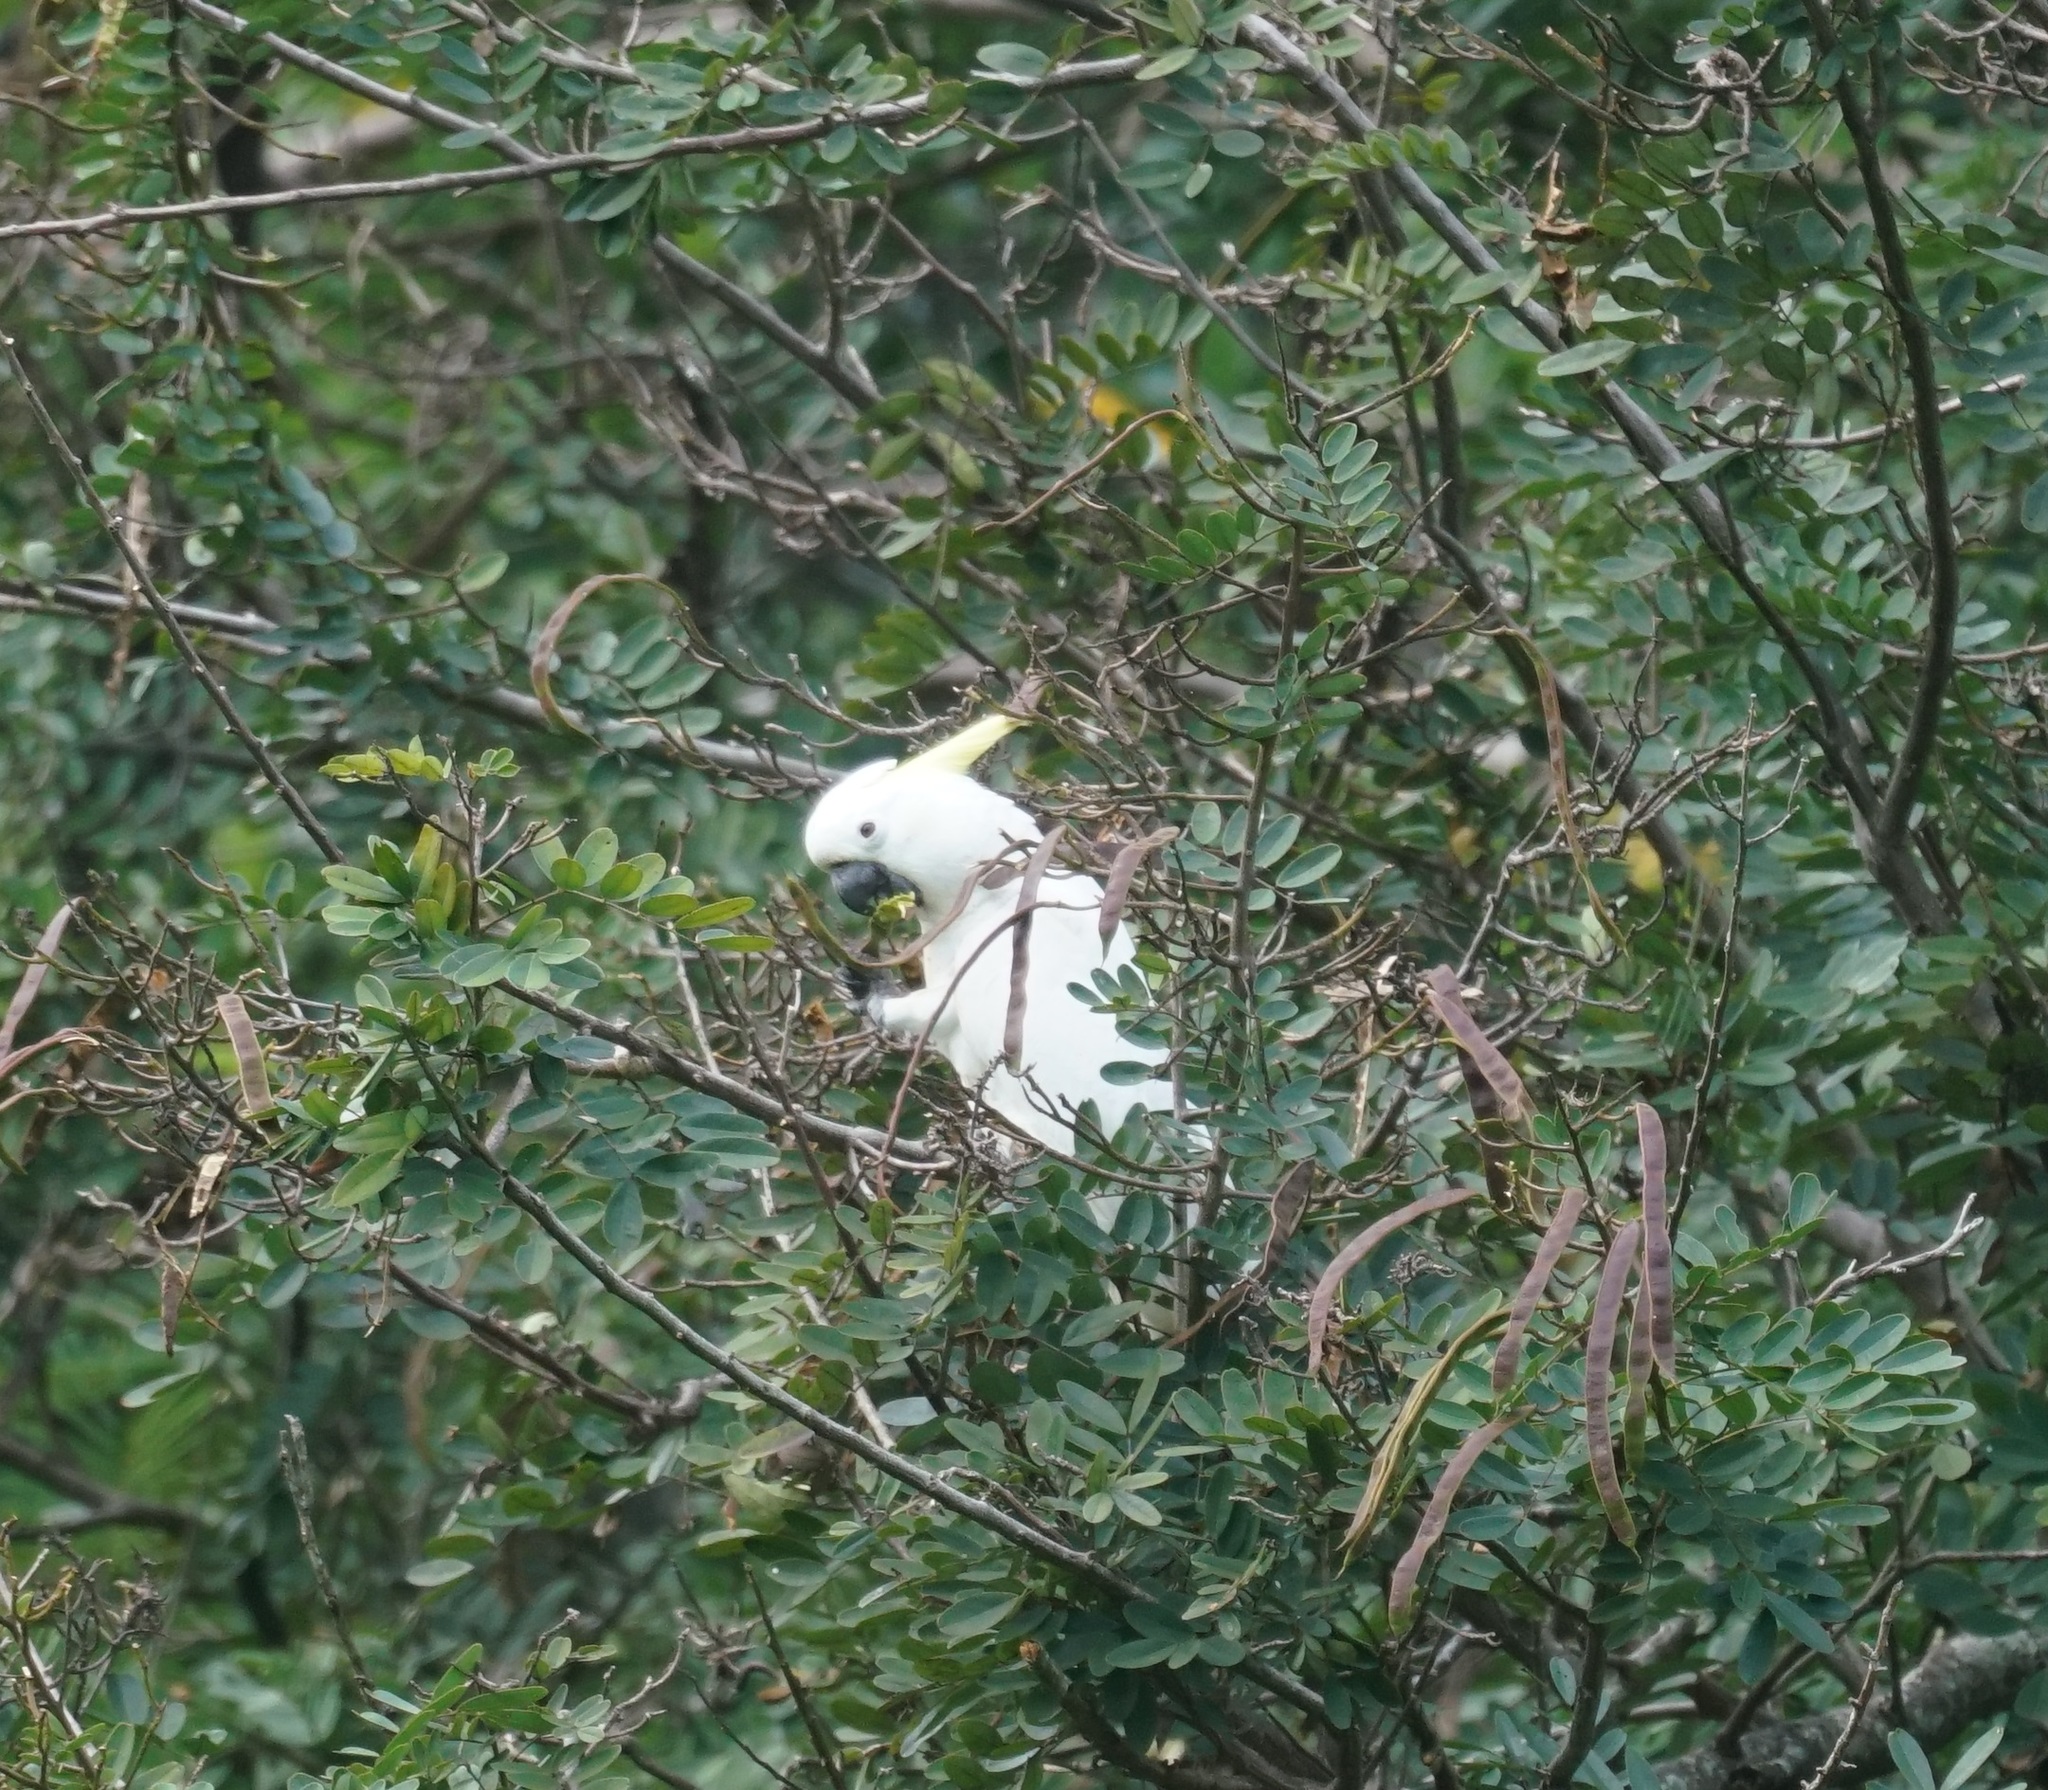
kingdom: Animalia
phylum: Chordata
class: Aves
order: Psittaciformes
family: Psittacidae
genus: Cacatua
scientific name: Cacatua galerita
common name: Sulphur-crested cockatoo
